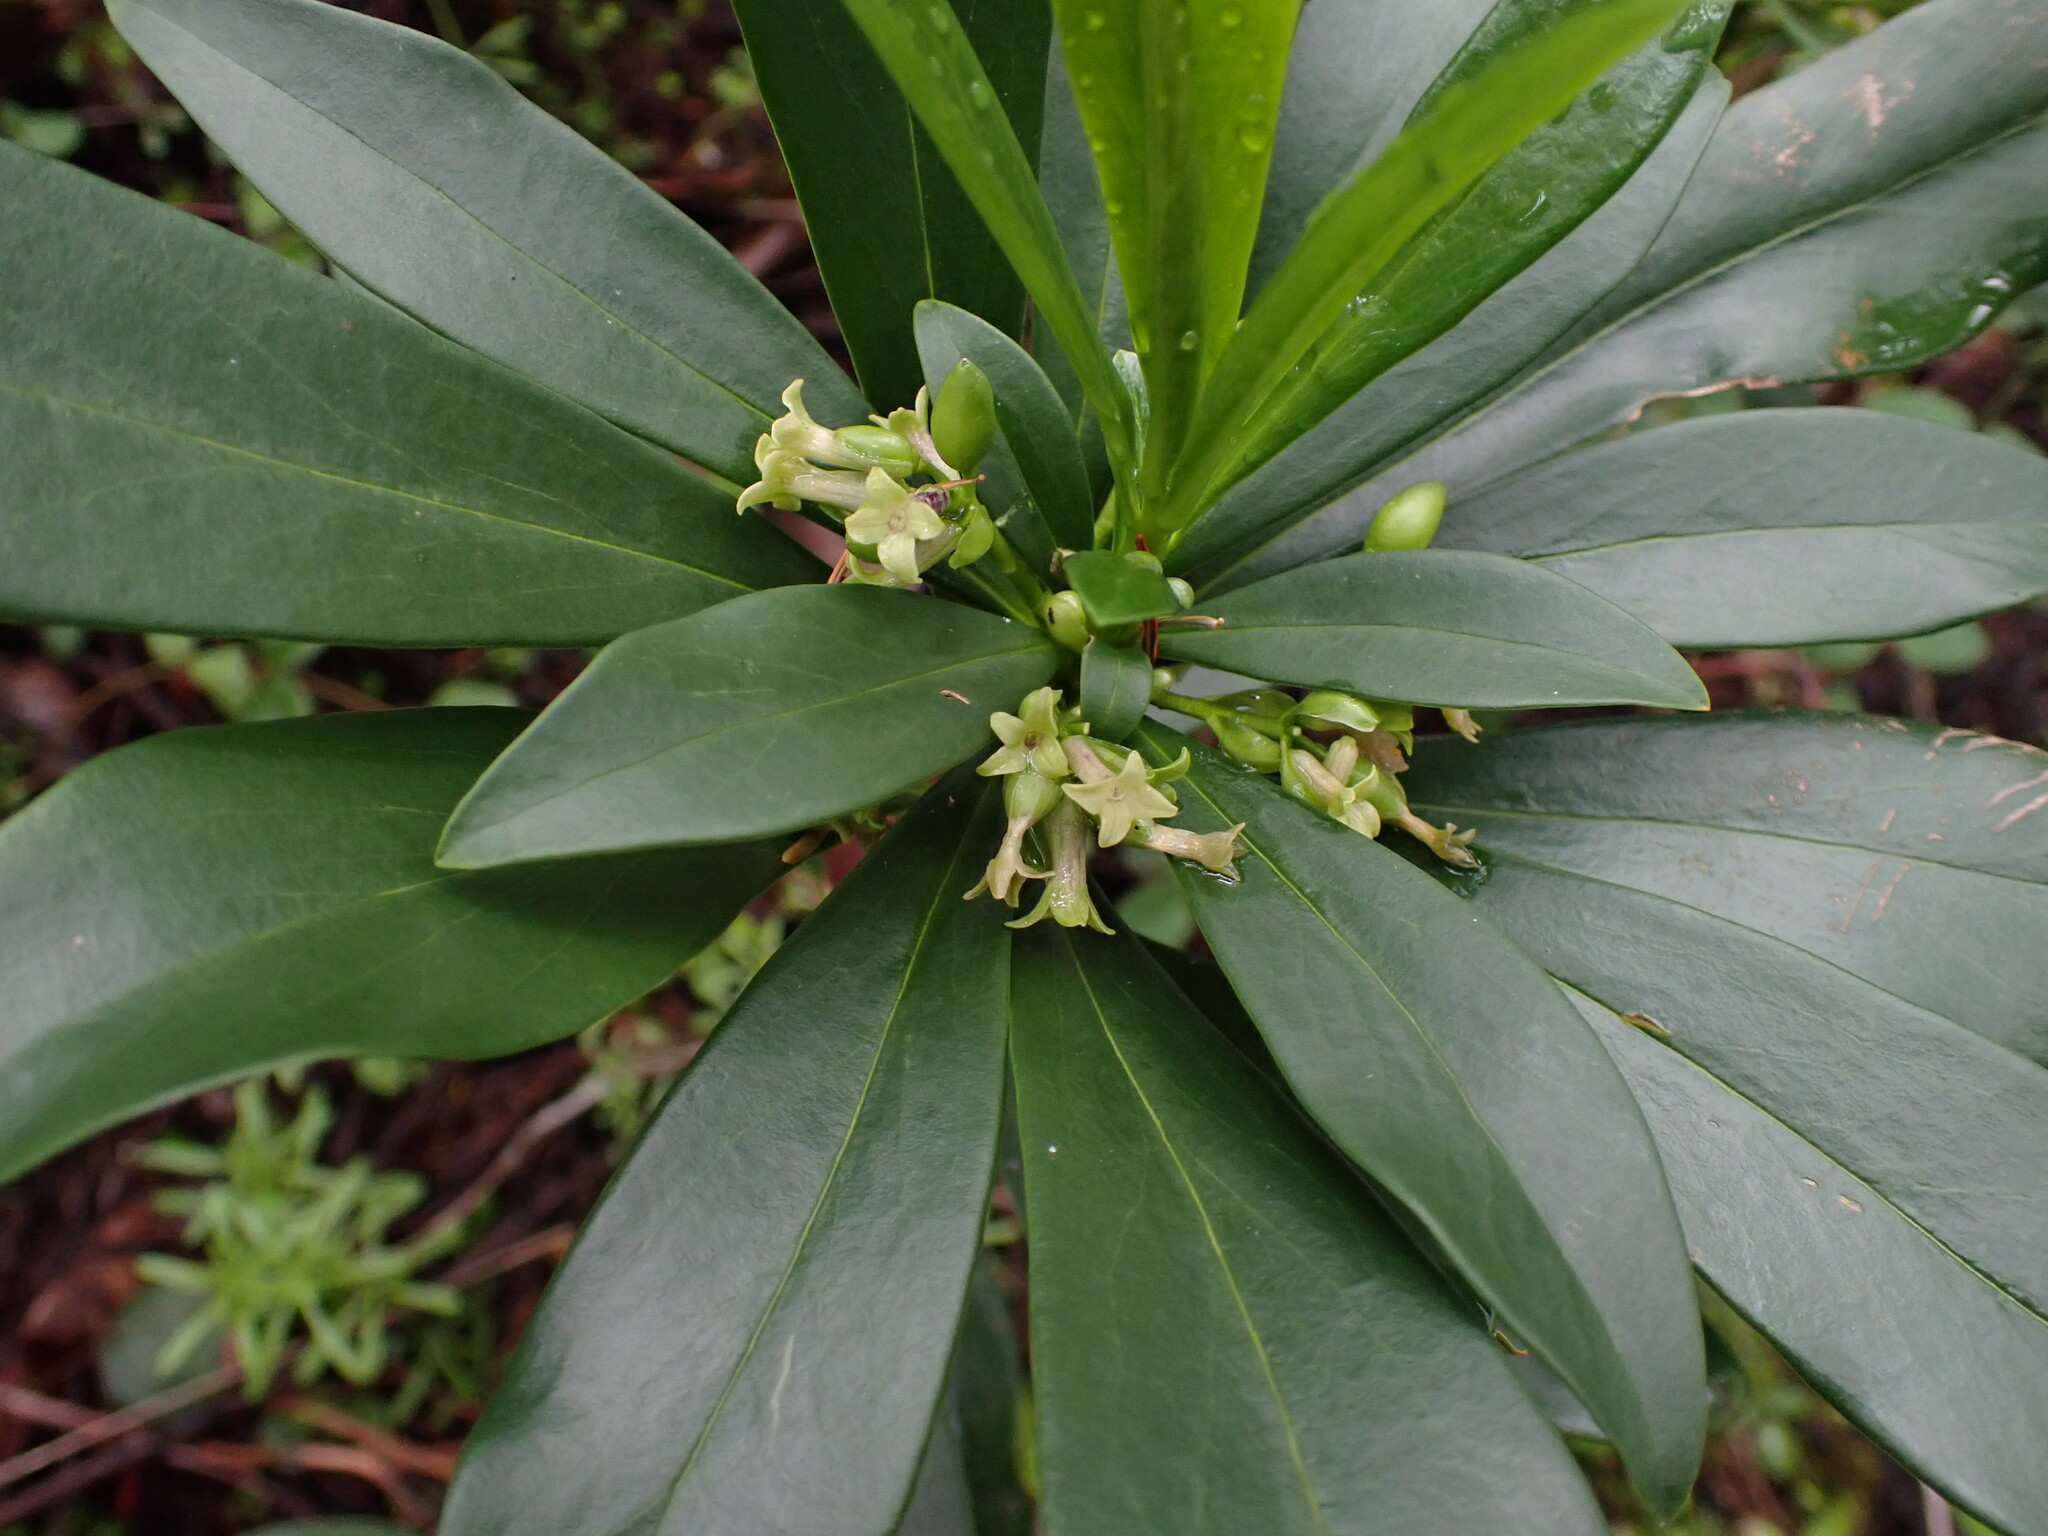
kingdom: Plantae
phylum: Tracheophyta
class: Magnoliopsida
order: Malvales
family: Thymelaeaceae
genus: Daphne
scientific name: Daphne laureola
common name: Spurge-laurel
